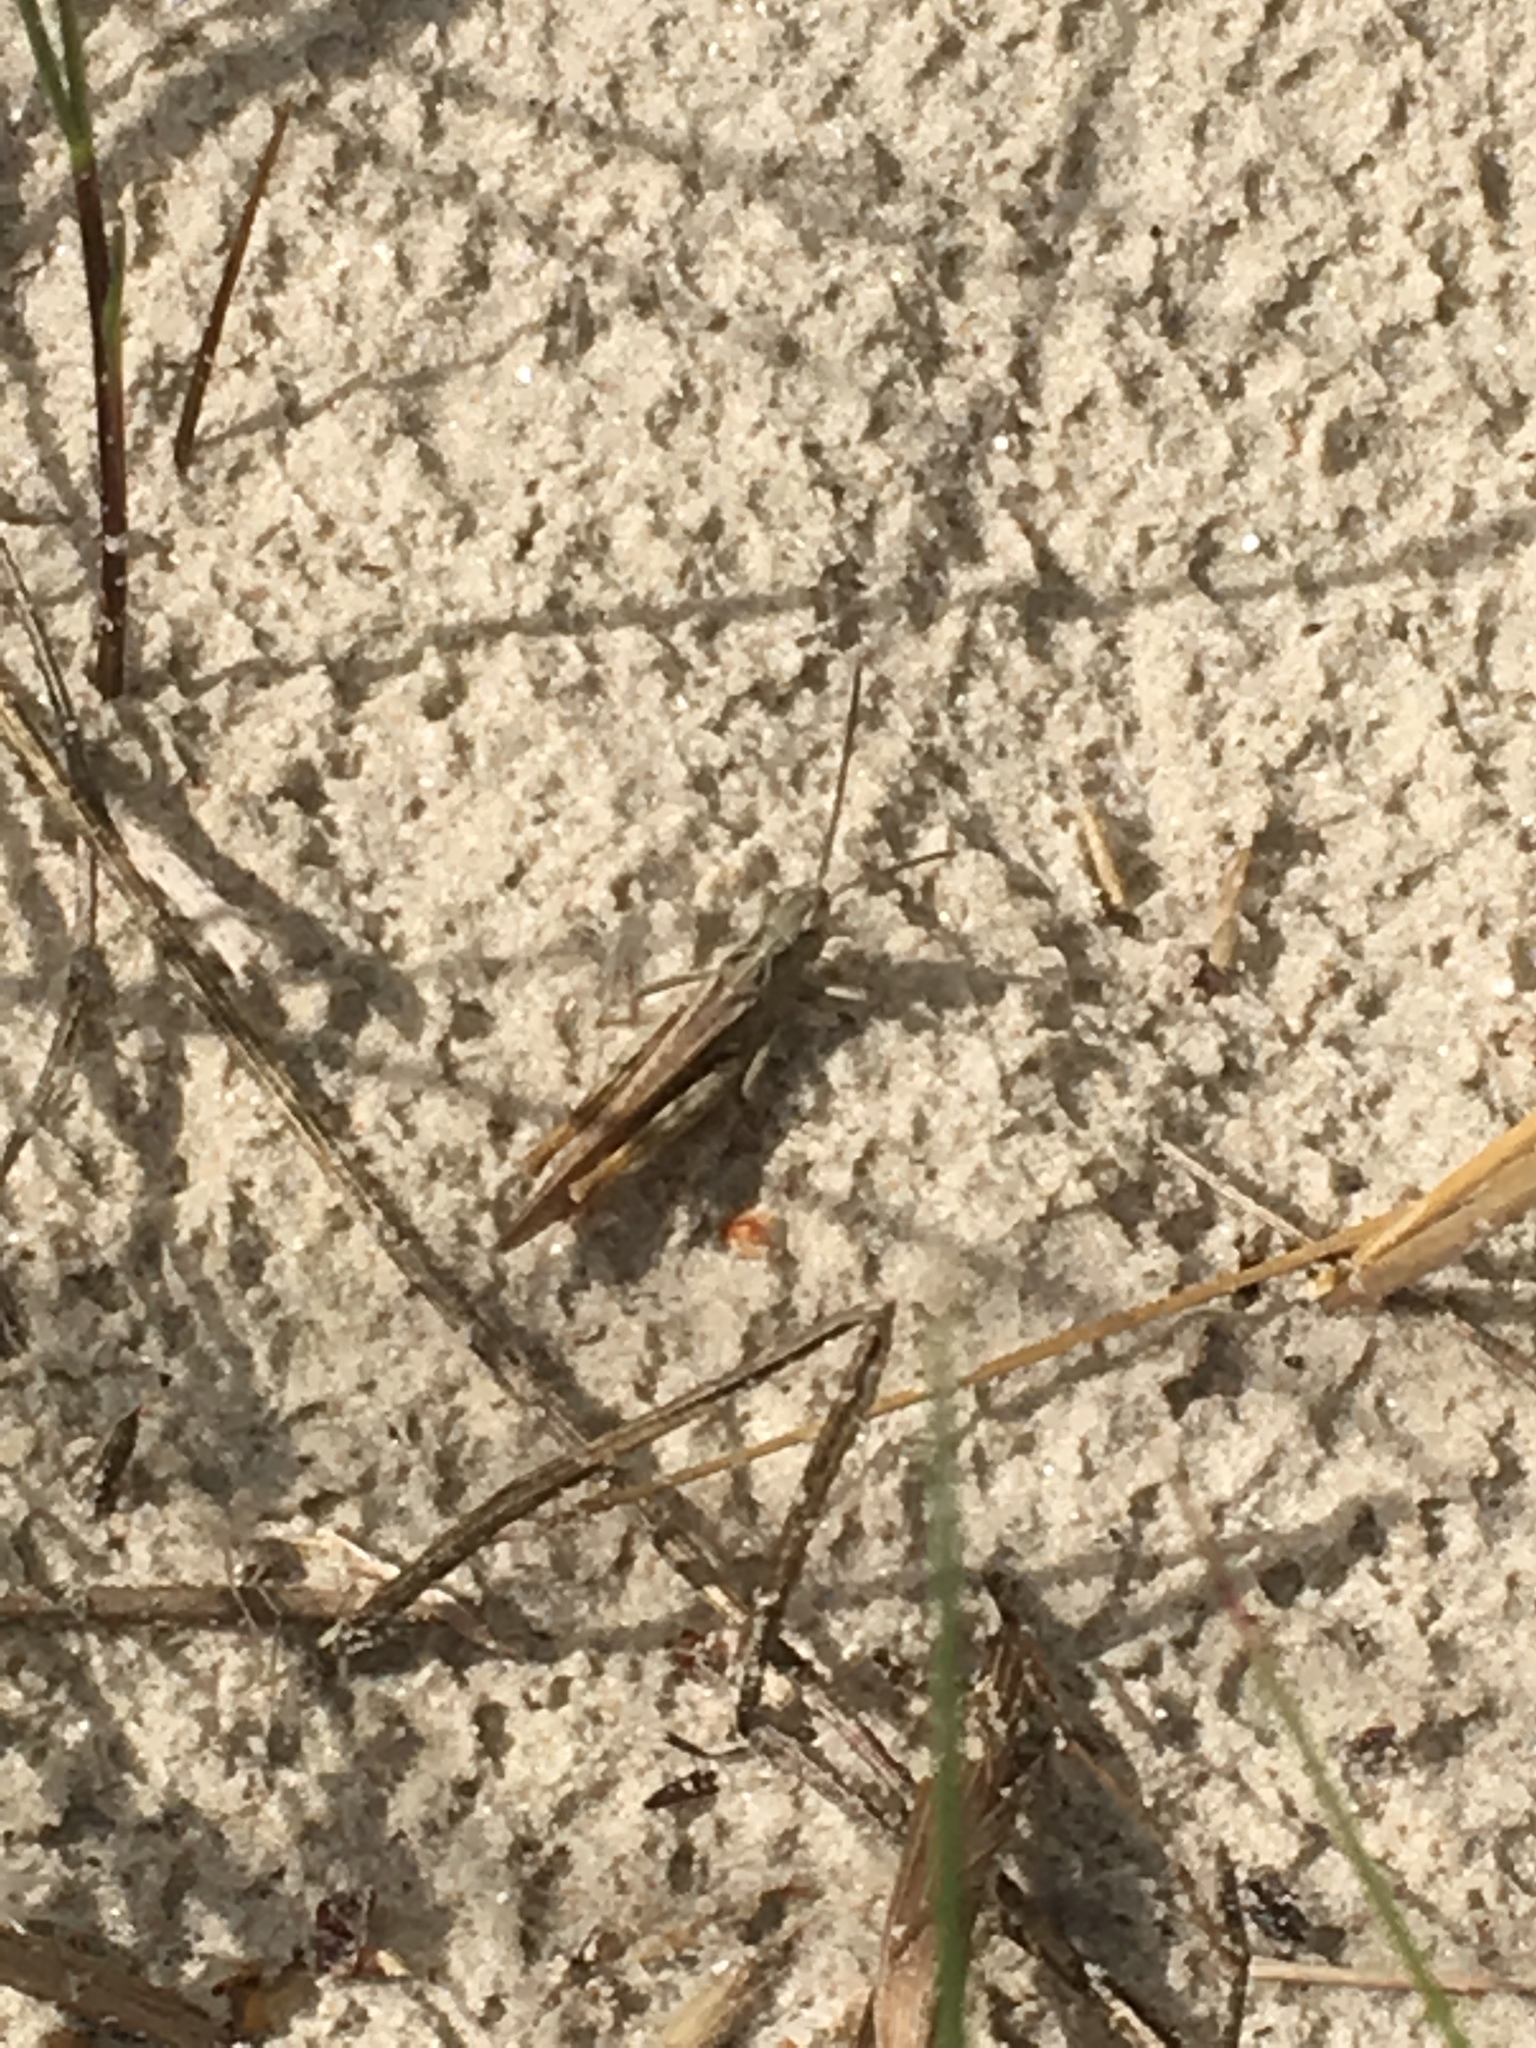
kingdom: Animalia
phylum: Arthropoda
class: Insecta
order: Orthoptera
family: Acrididae
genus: Chorthippus
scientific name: Chorthippus brunneus
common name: Field grasshopper
